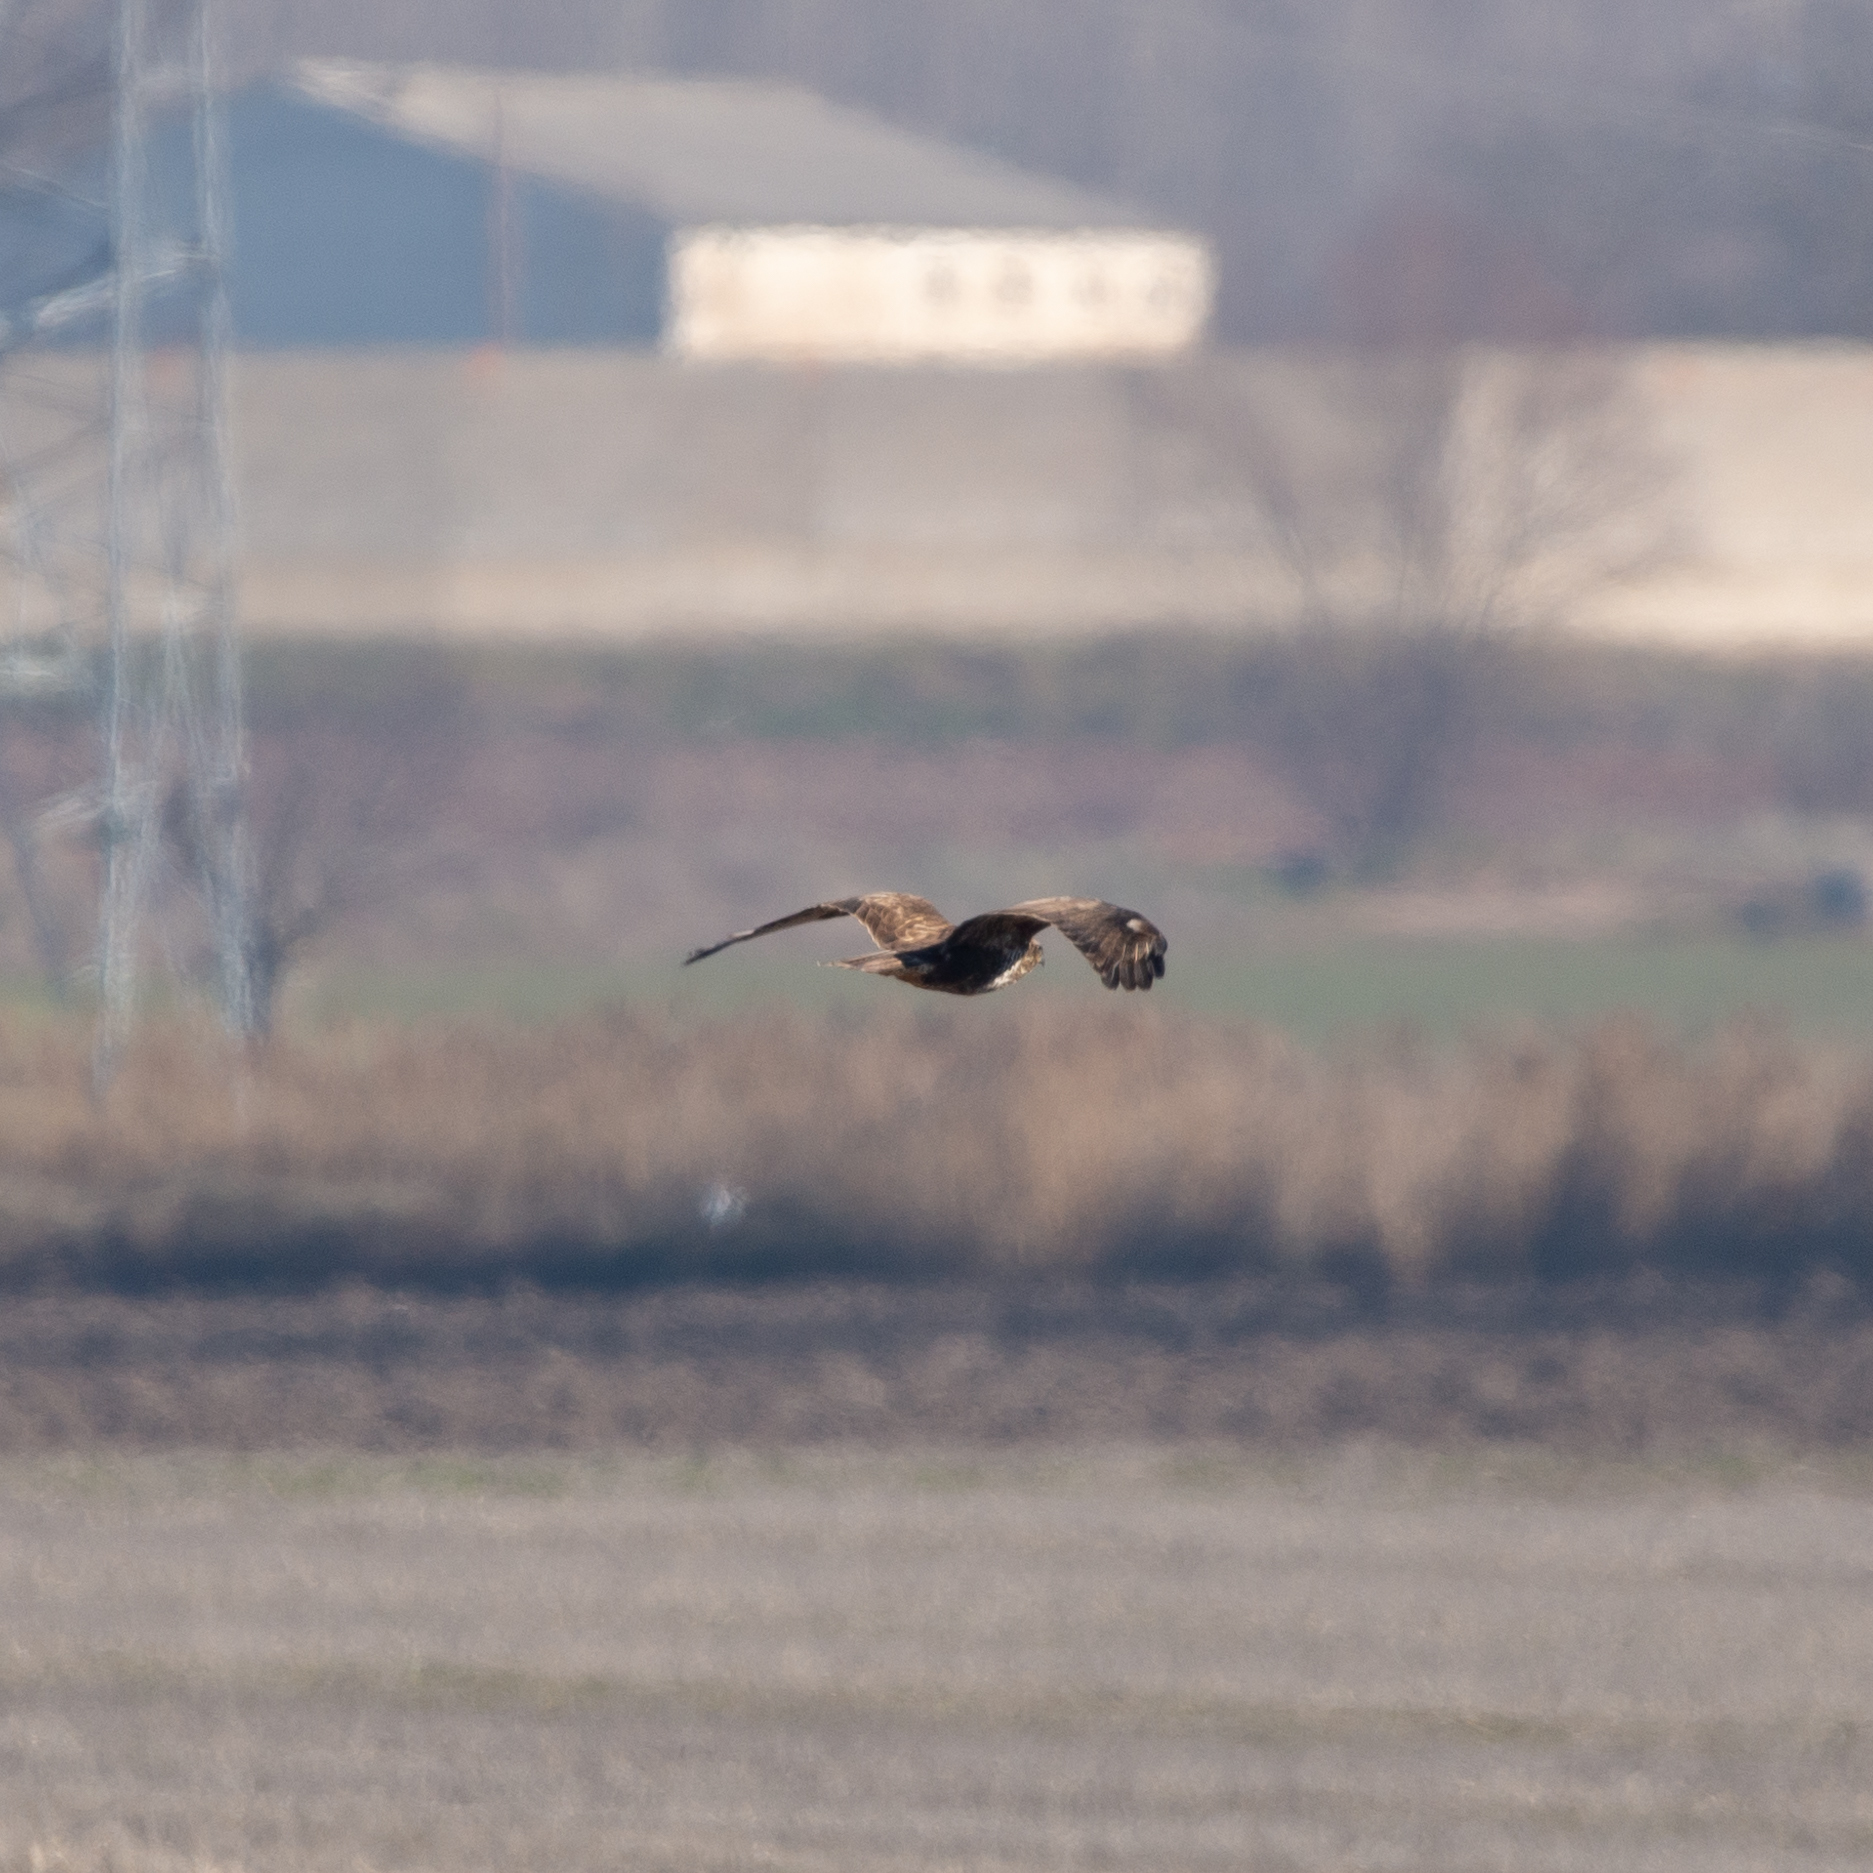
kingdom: Animalia
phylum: Chordata
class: Aves
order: Accipitriformes
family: Accipitridae
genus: Buteo
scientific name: Buteo buteo
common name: Common buzzard
